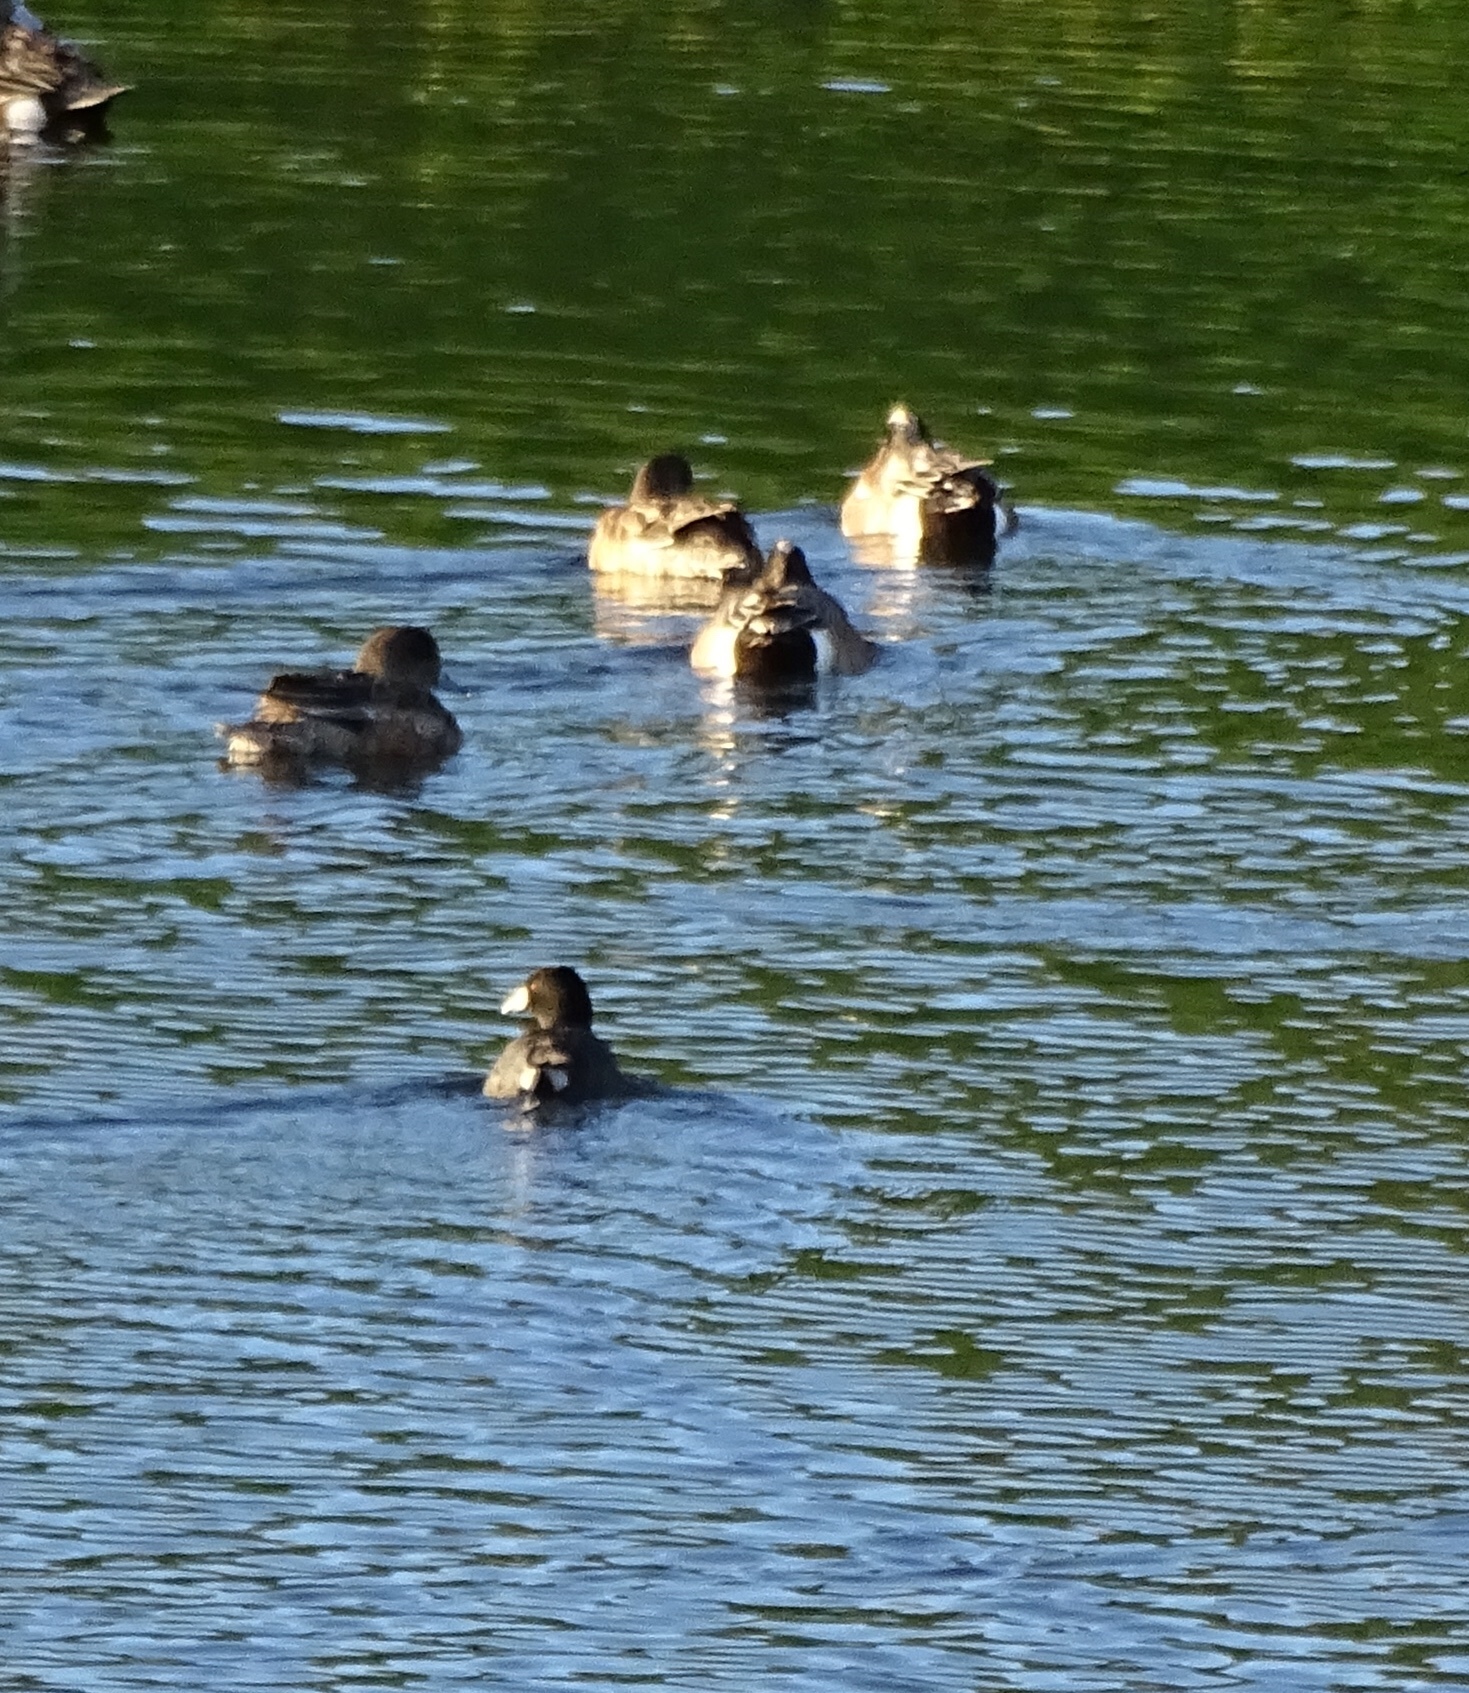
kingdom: Animalia
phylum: Chordata
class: Aves
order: Anseriformes
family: Anatidae
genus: Mareca
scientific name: Mareca americana
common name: American wigeon
